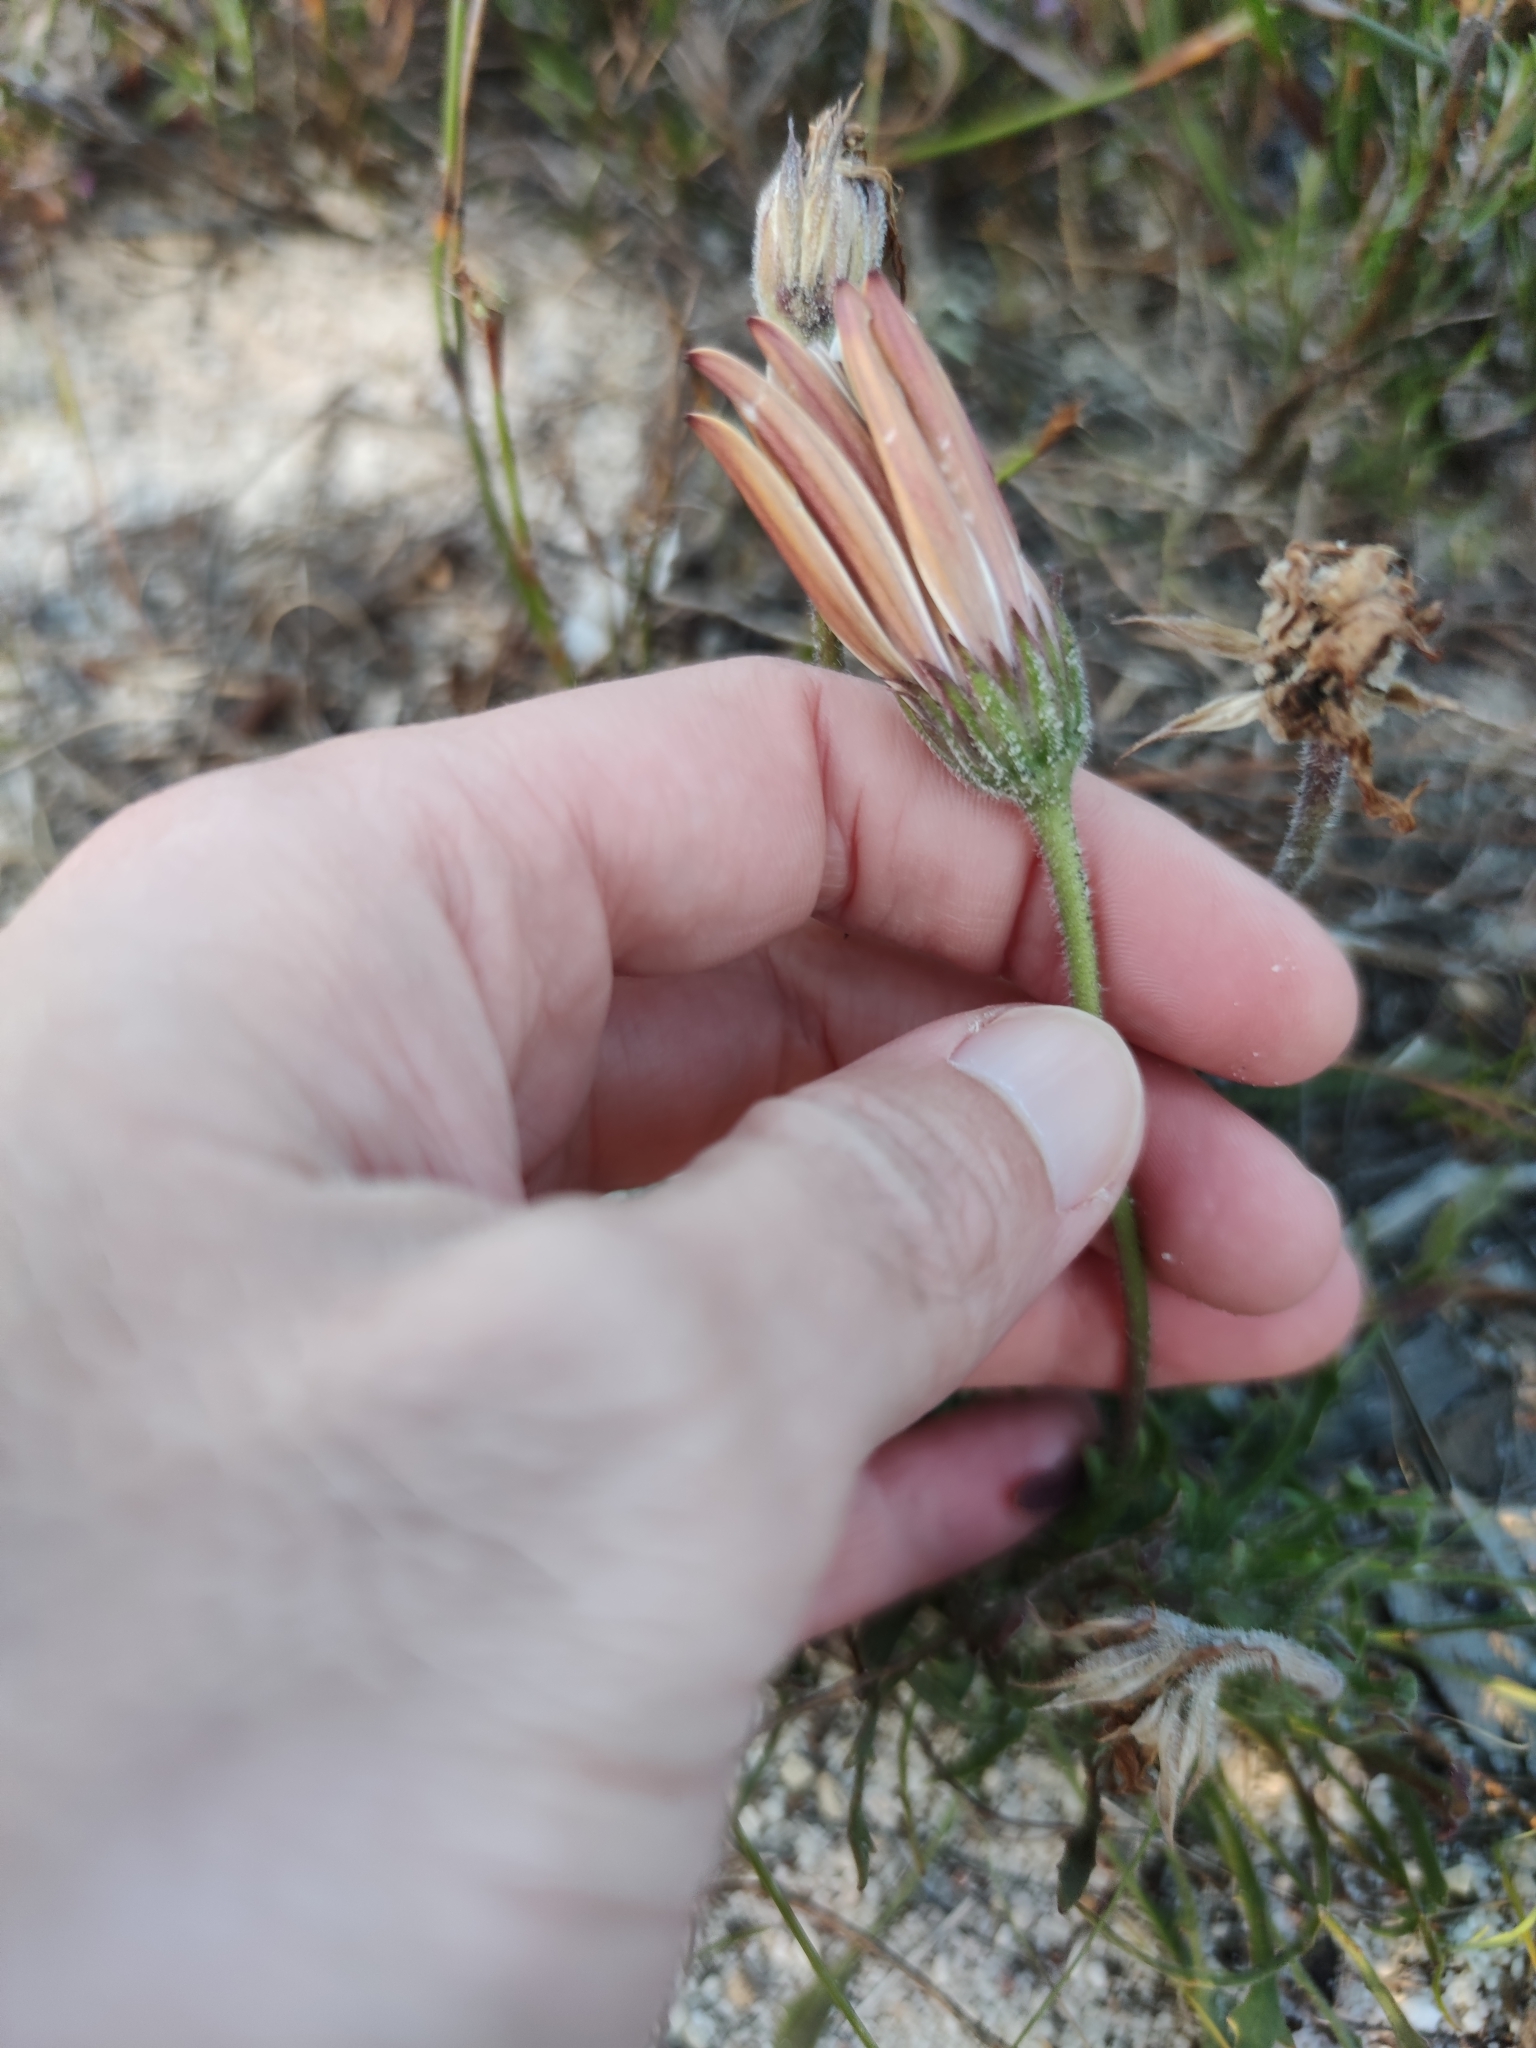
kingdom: Plantae
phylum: Tracheophyta
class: Magnoliopsida
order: Asterales
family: Asteraceae
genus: Dimorphotheca
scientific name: Dimorphotheca nudicaulis
